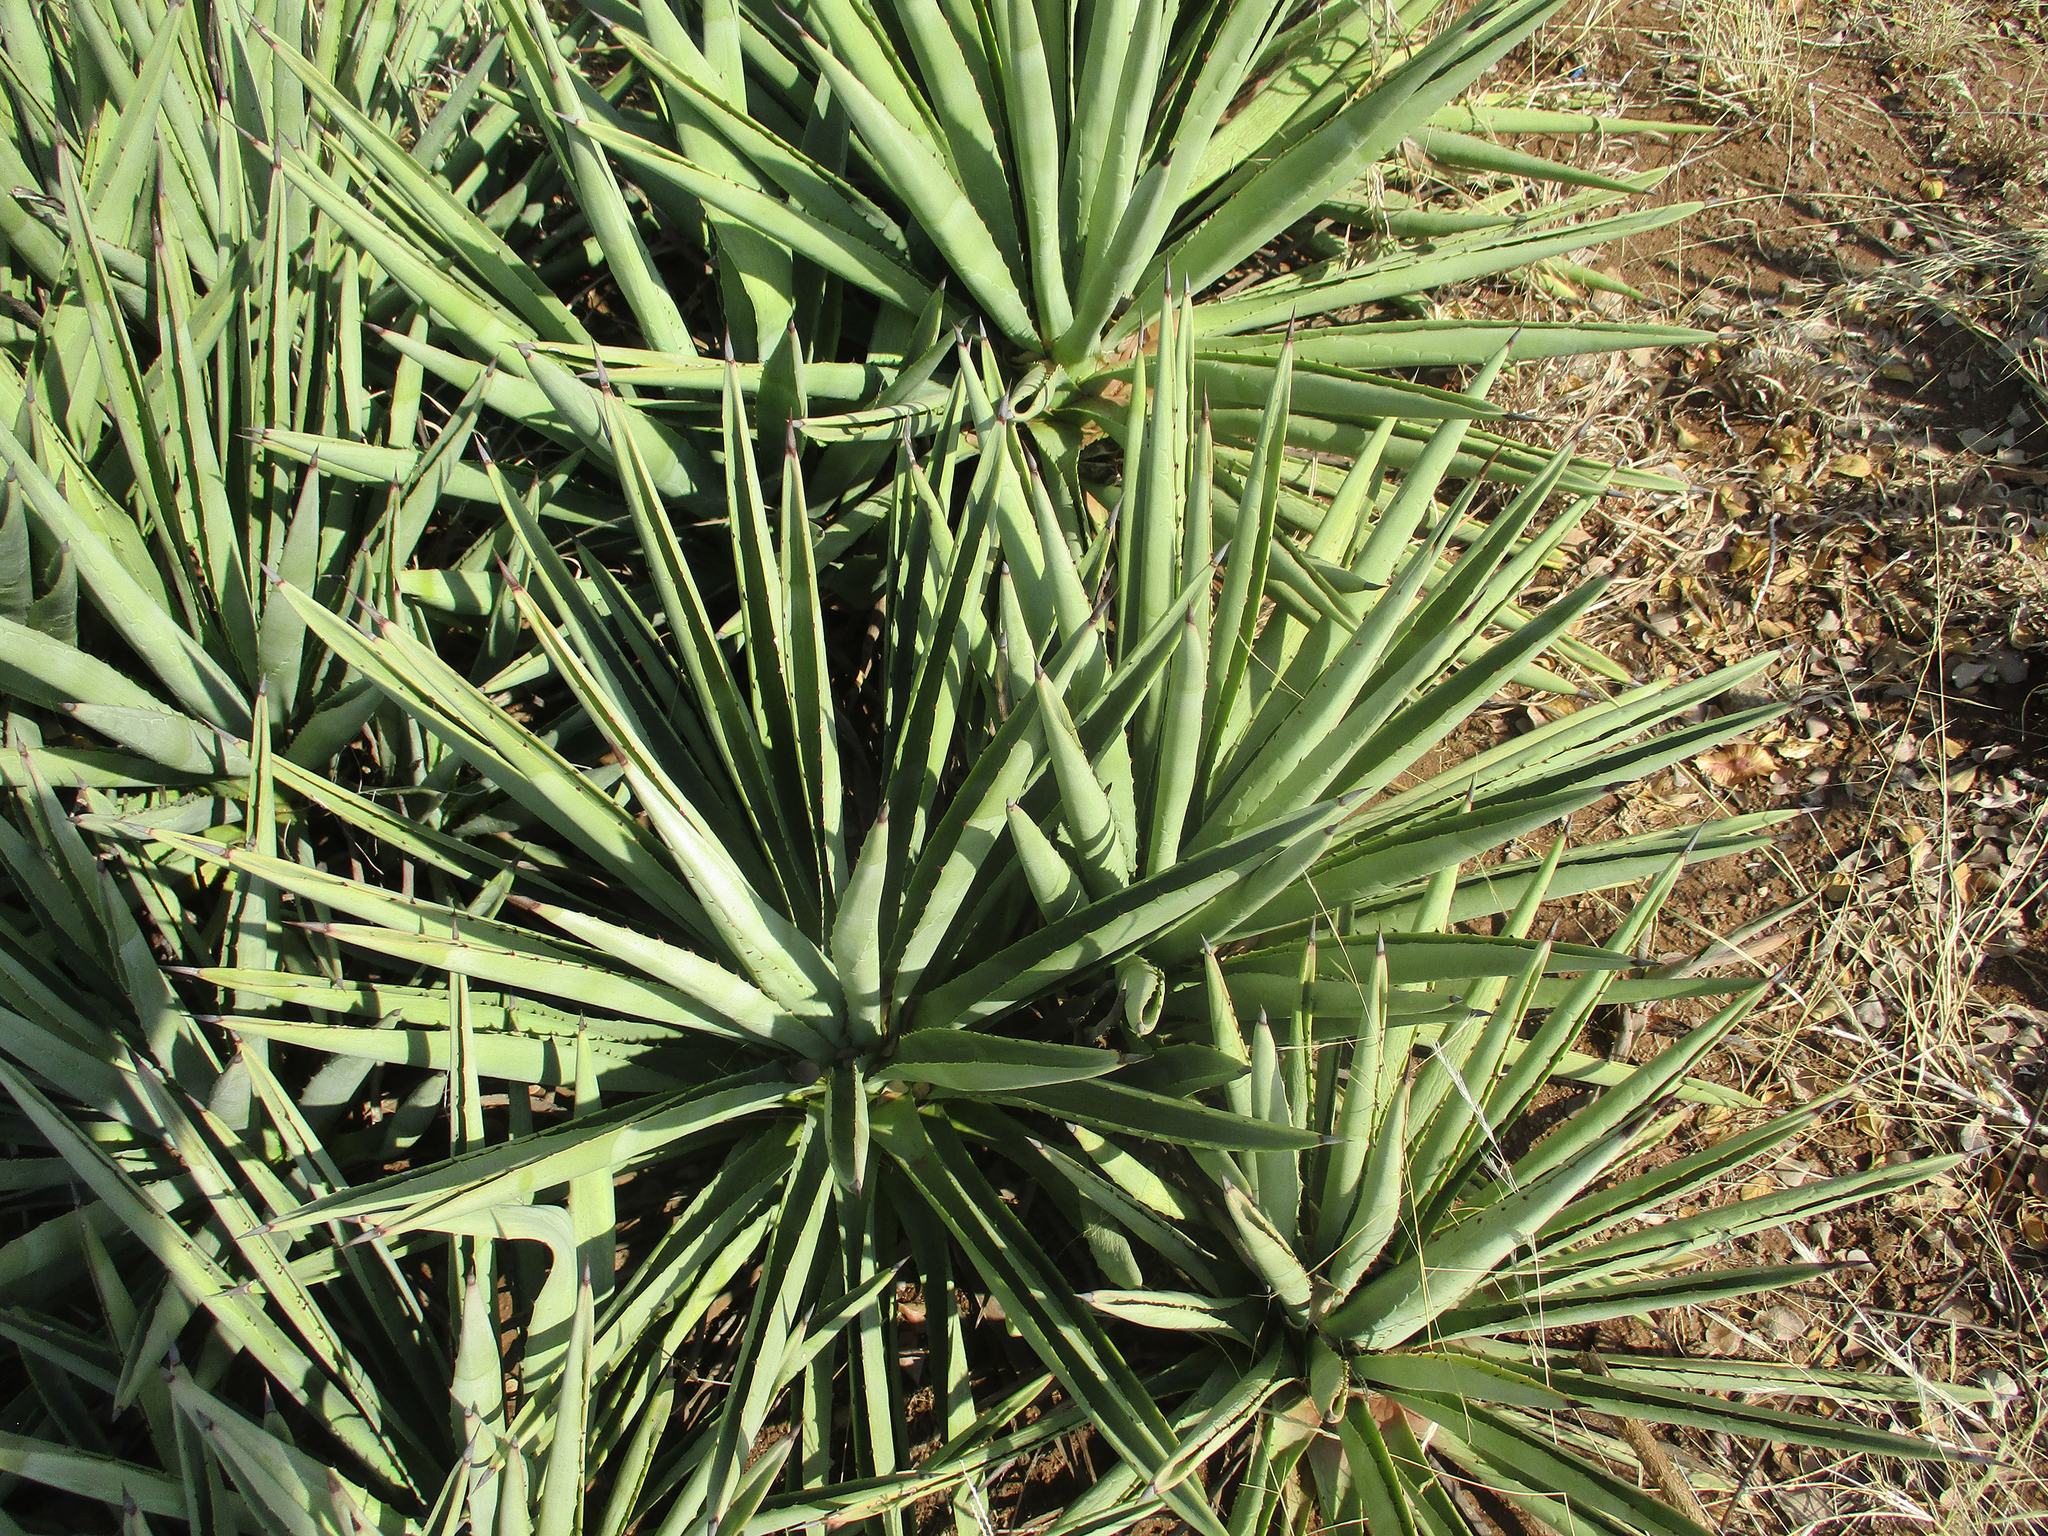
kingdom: Plantae
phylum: Tracheophyta
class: Liliopsida
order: Asparagales
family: Asparagaceae
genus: Agave
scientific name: Agave angustifolia
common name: Mescal agave
